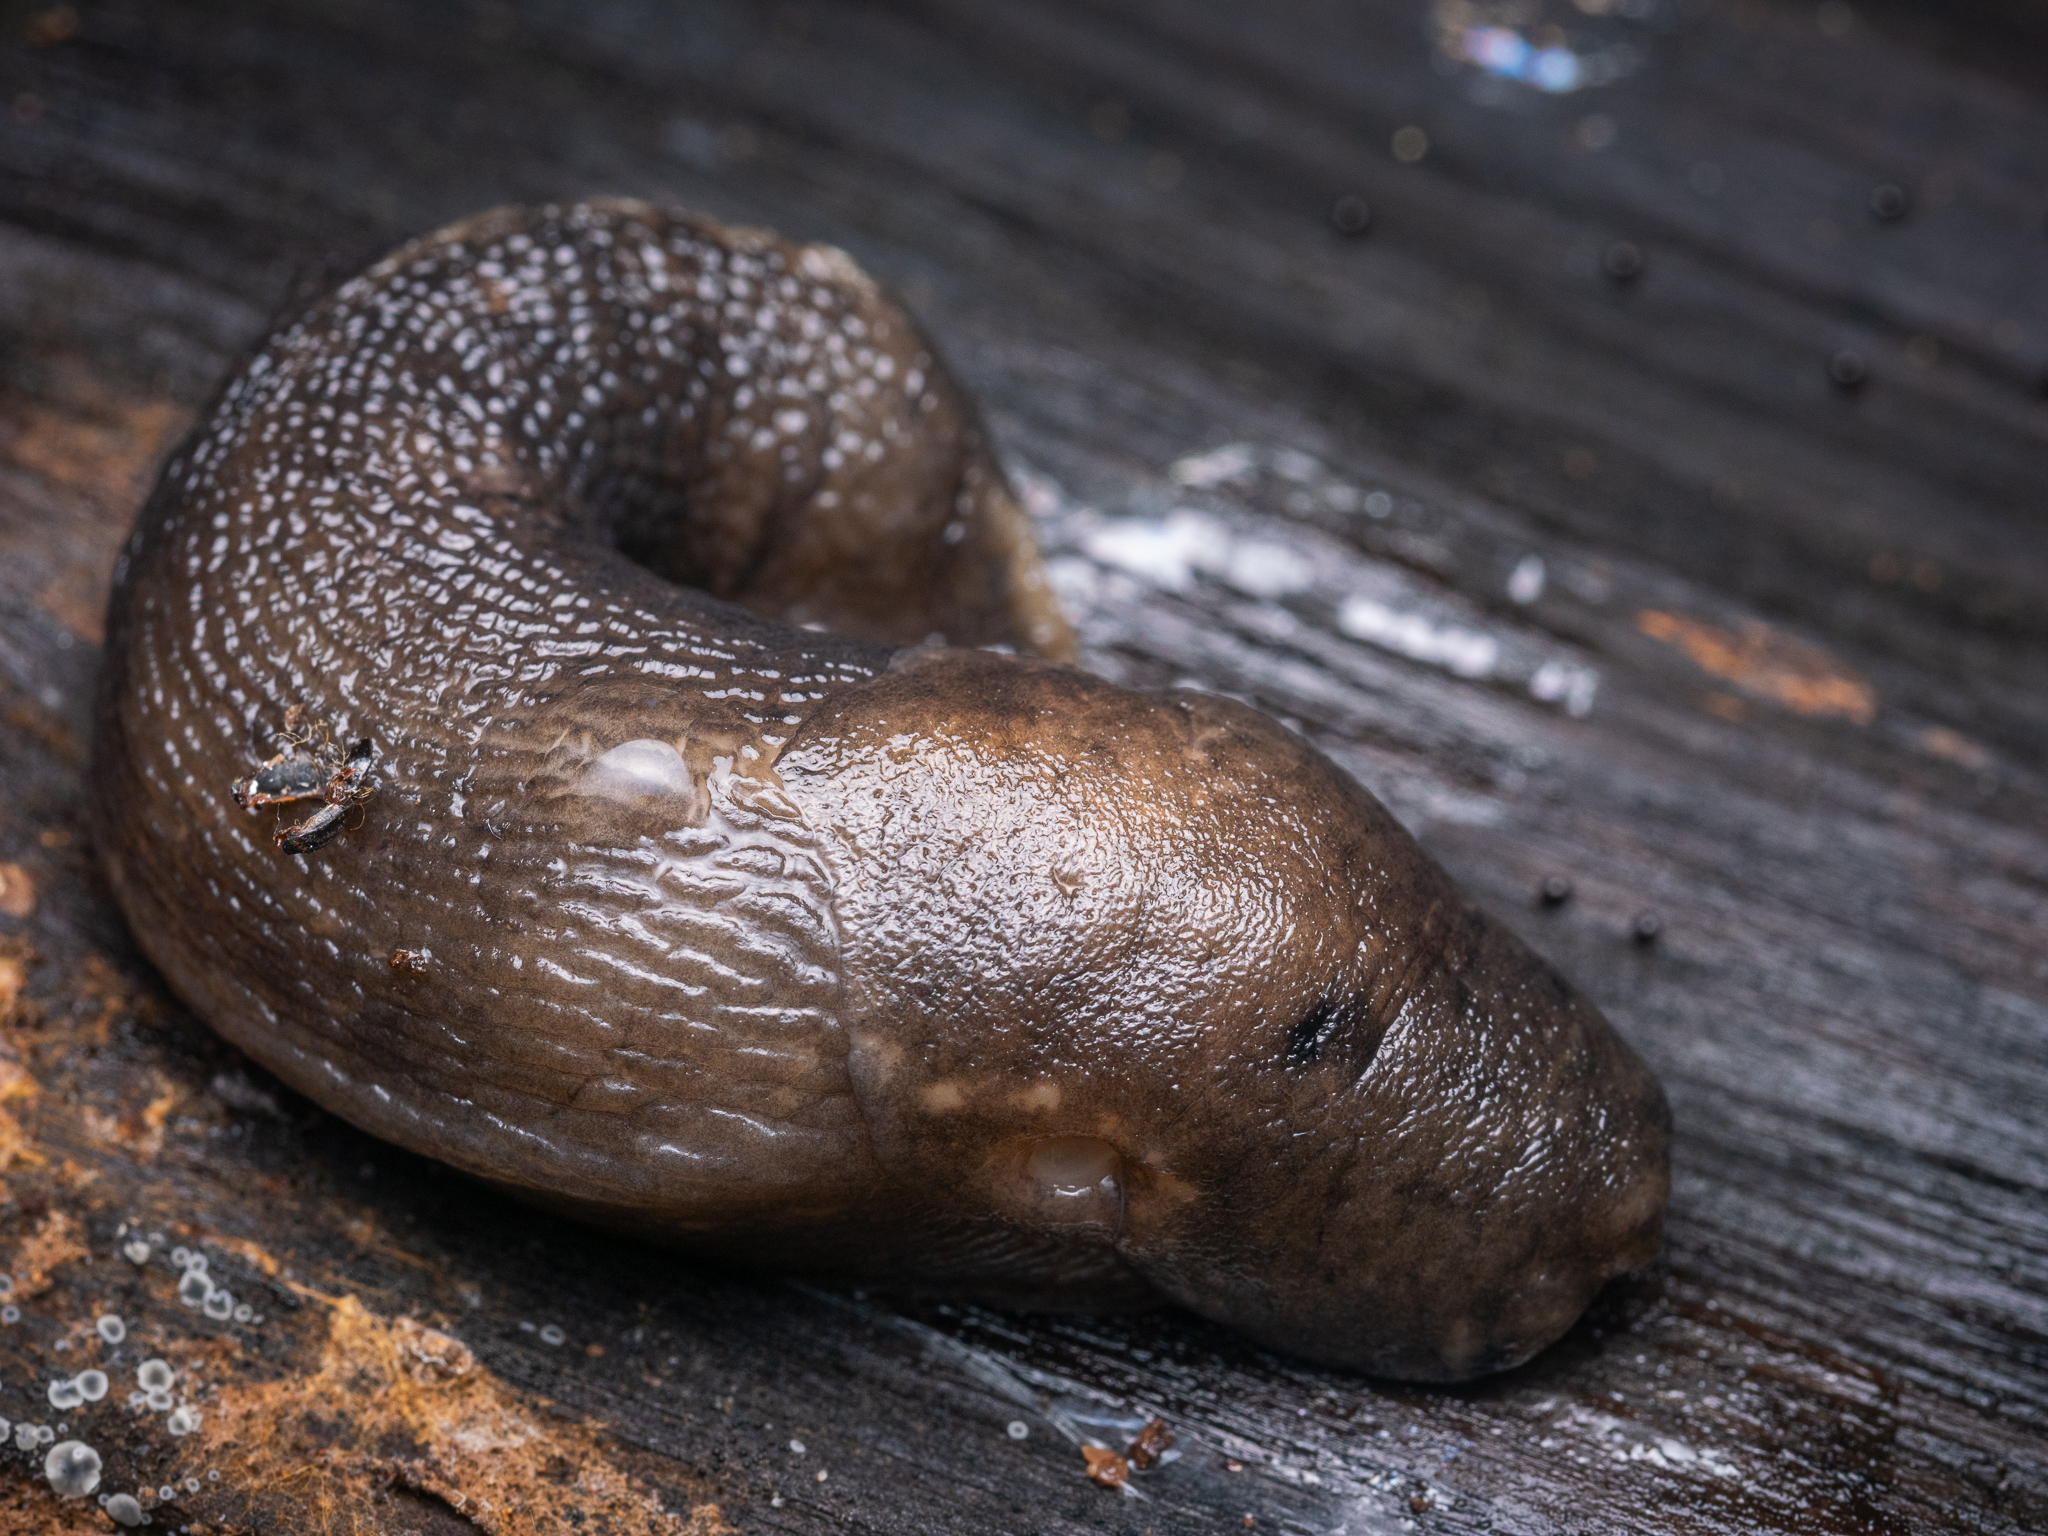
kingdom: Animalia
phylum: Mollusca
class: Gastropoda
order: Stylommatophora
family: Limacidae
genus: Limax
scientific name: Limax maximus
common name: Great grey slug
